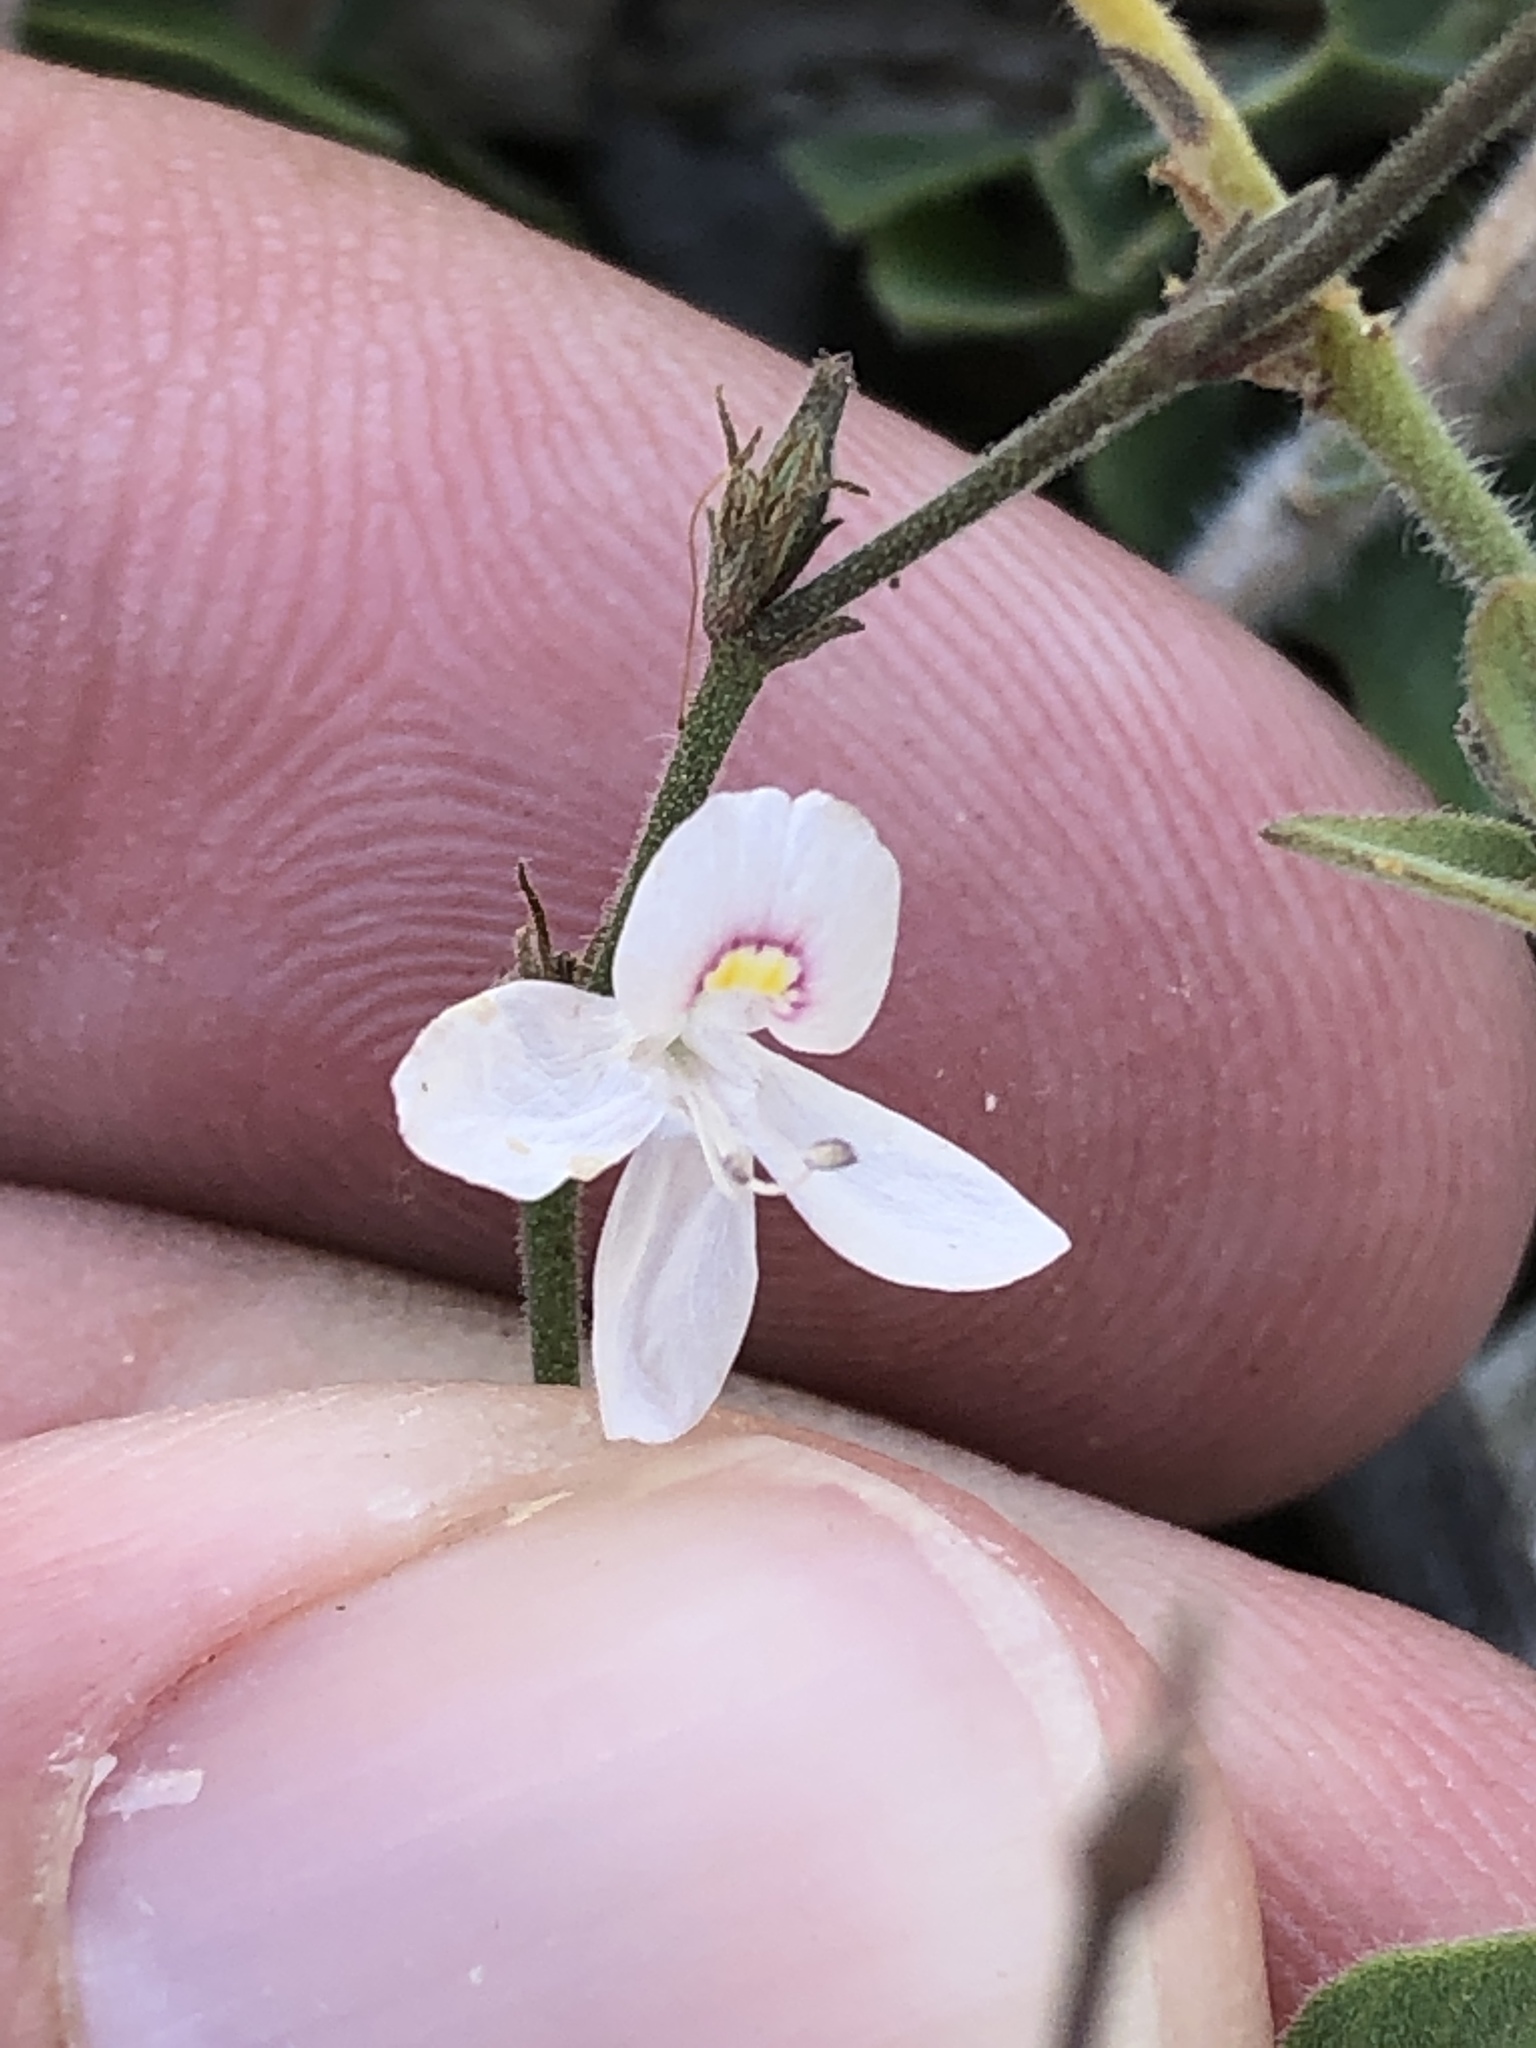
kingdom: Plantae
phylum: Tracheophyta
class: Magnoliopsida
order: Lamiales
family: Acanthaceae
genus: Carlowrightia
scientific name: Carlowrightia torreyana
